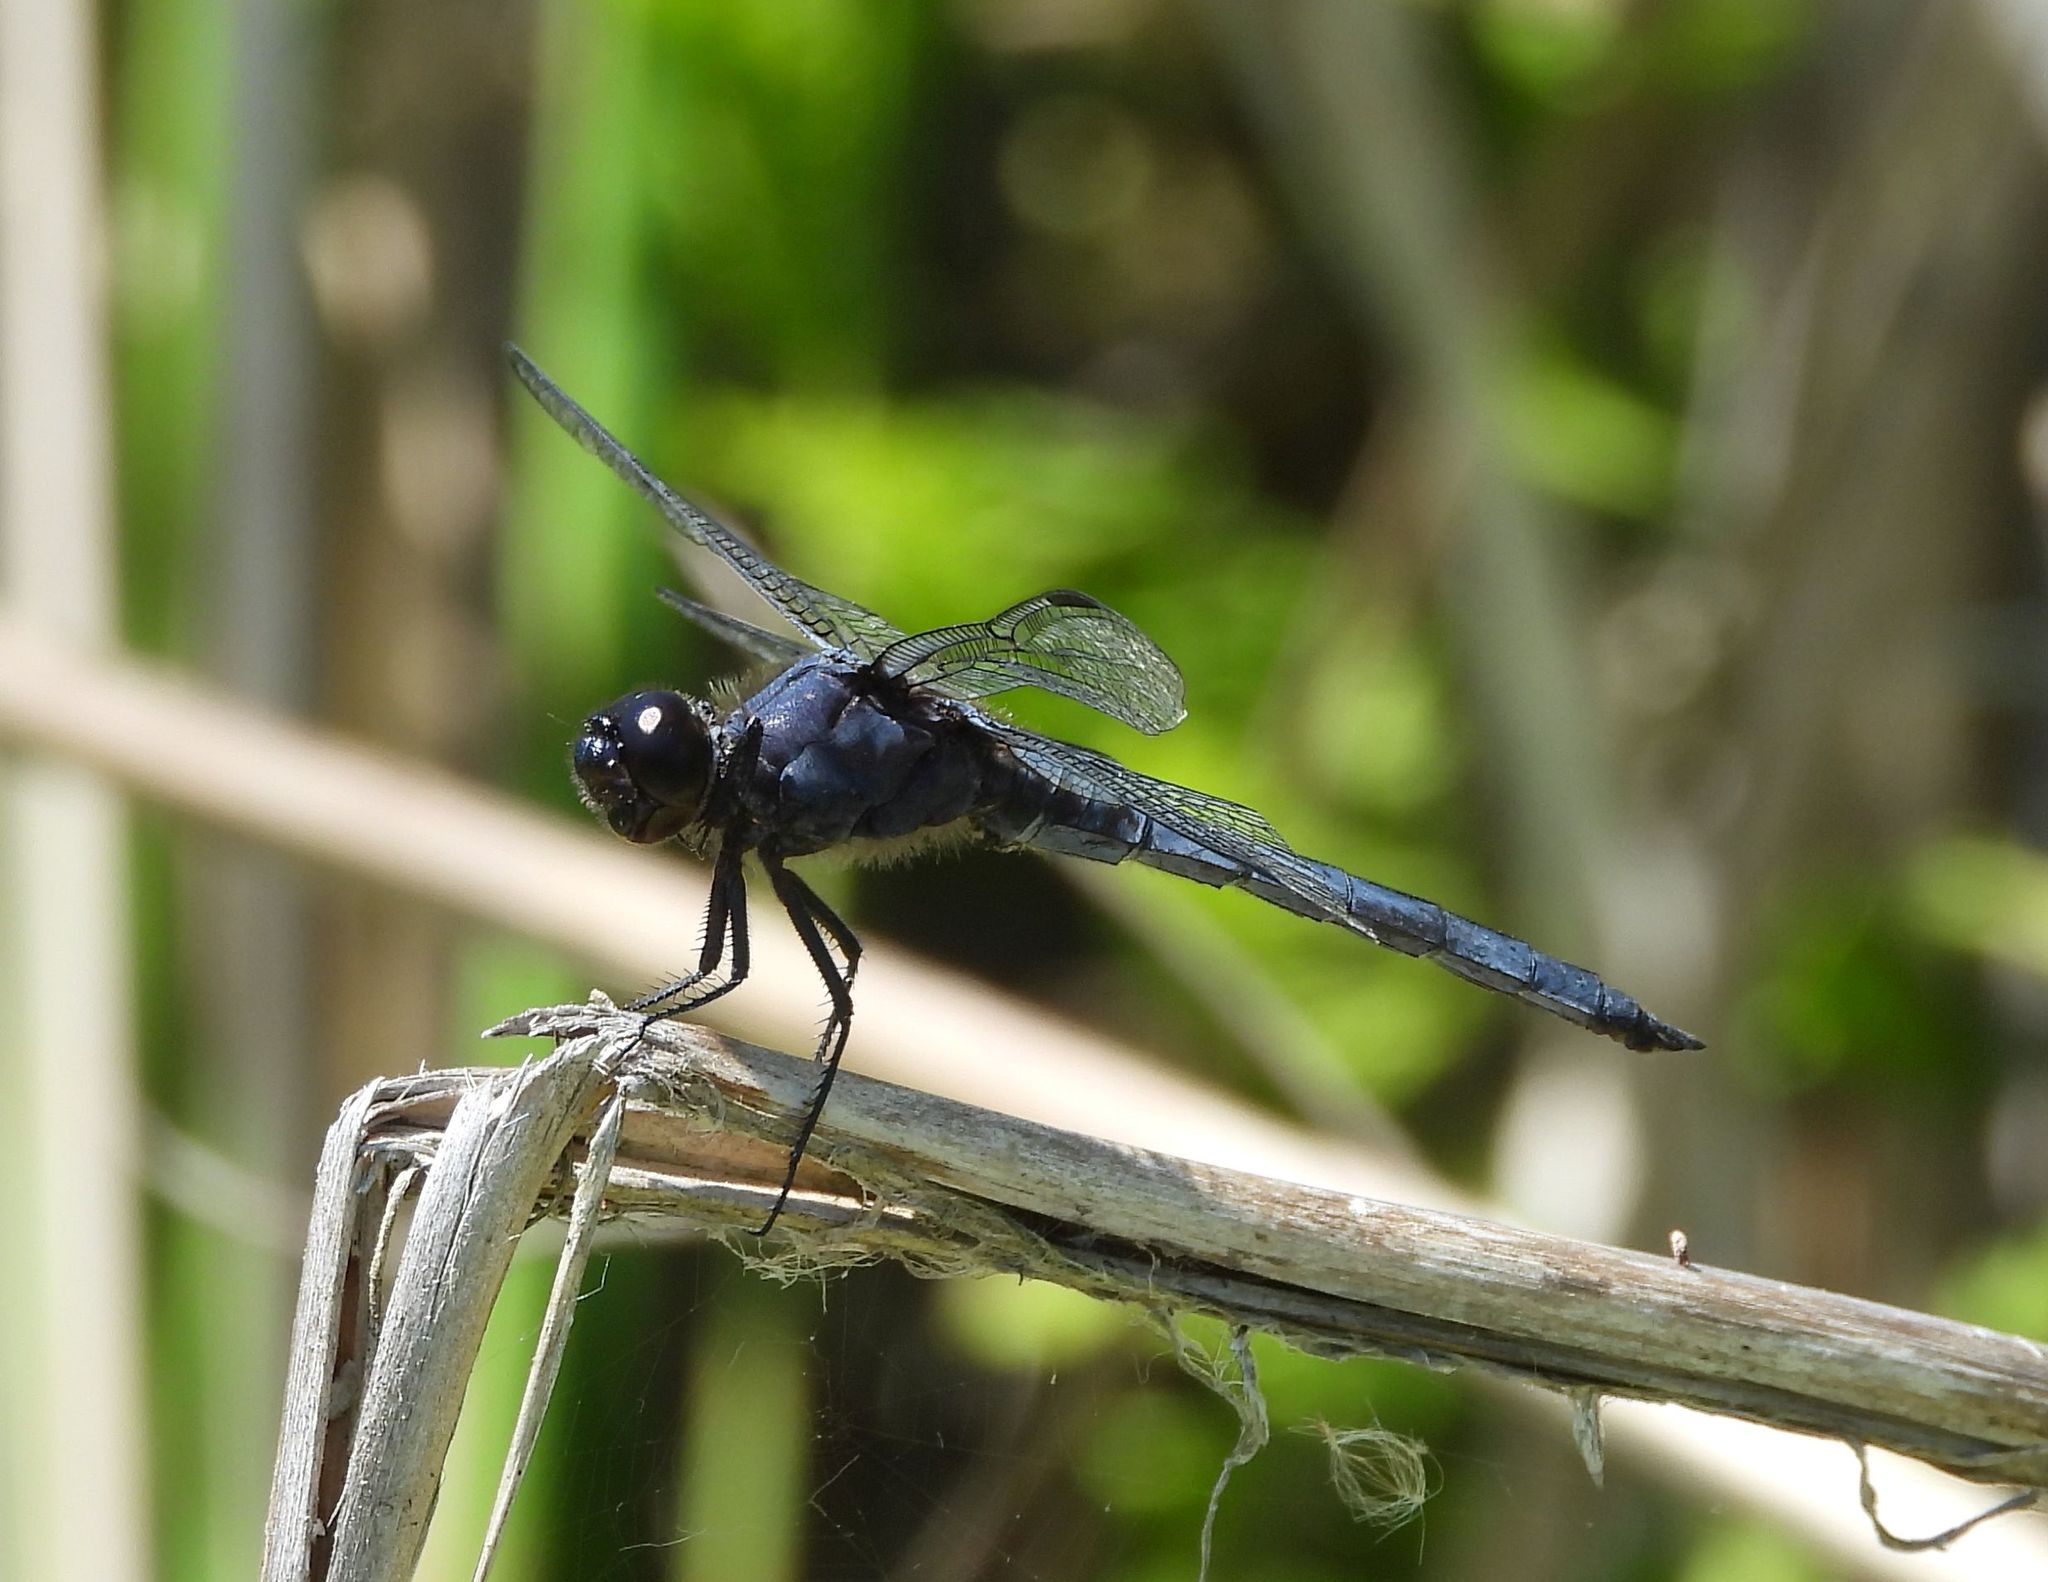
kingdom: Animalia
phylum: Arthropoda
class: Insecta
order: Odonata
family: Libellulidae
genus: Libellula
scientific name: Libellula incesta
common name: Slaty skimmer
